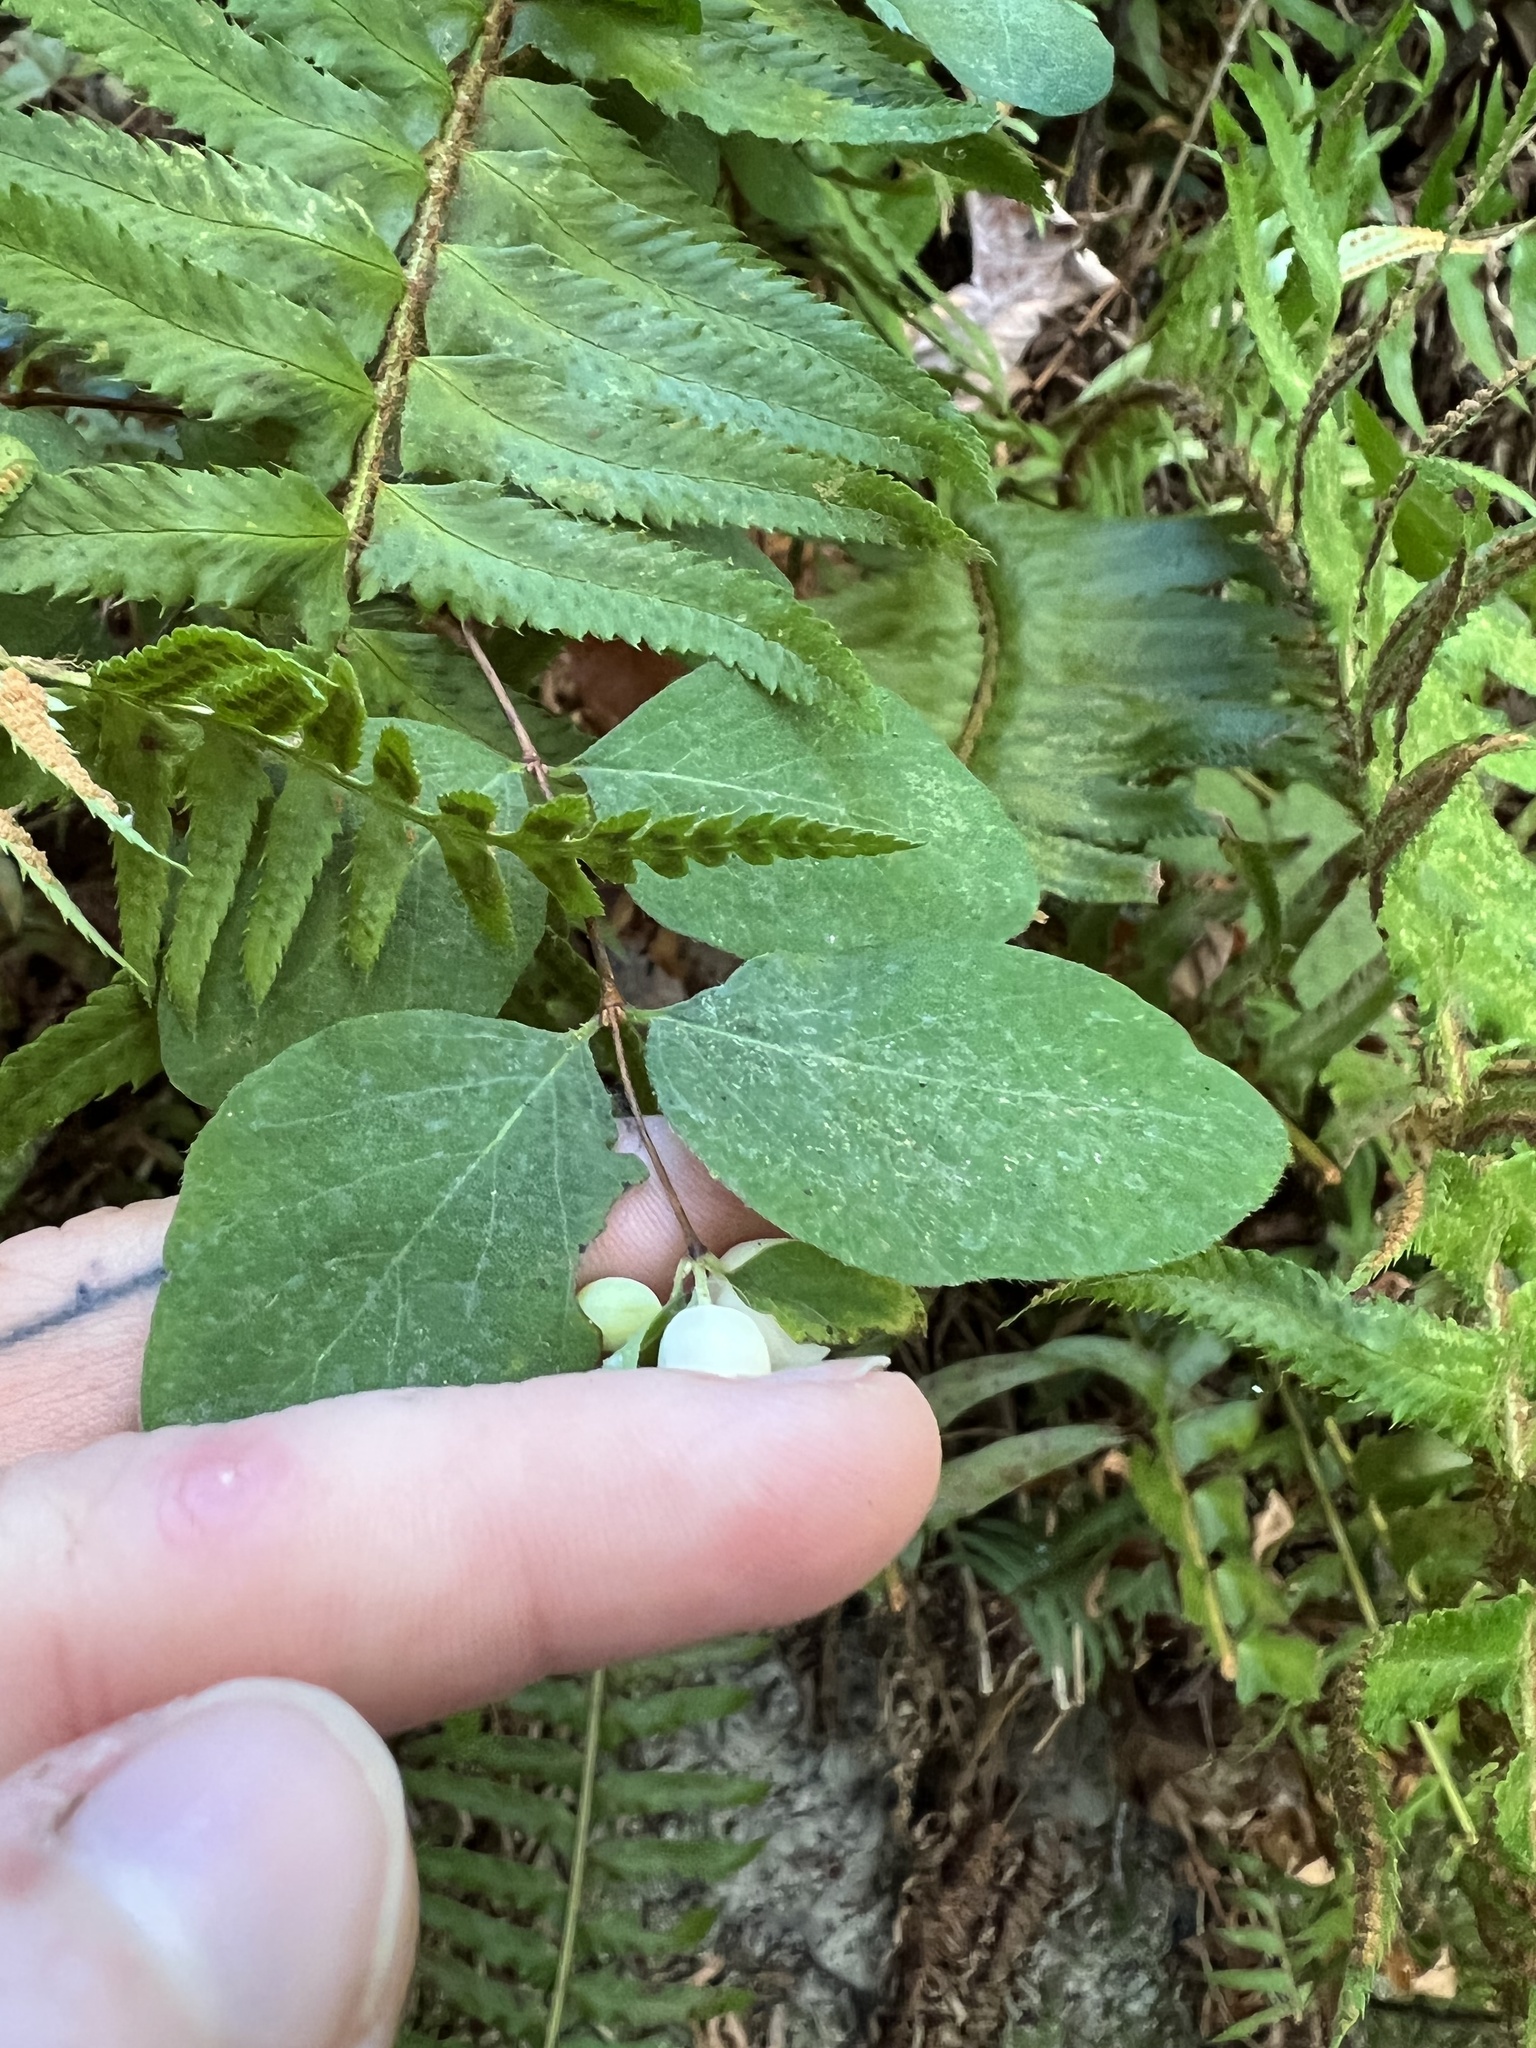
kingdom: Plantae
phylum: Tracheophyta
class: Magnoliopsida
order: Dipsacales
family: Caprifoliaceae
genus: Symphoricarpos
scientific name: Symphoricarpos albus
